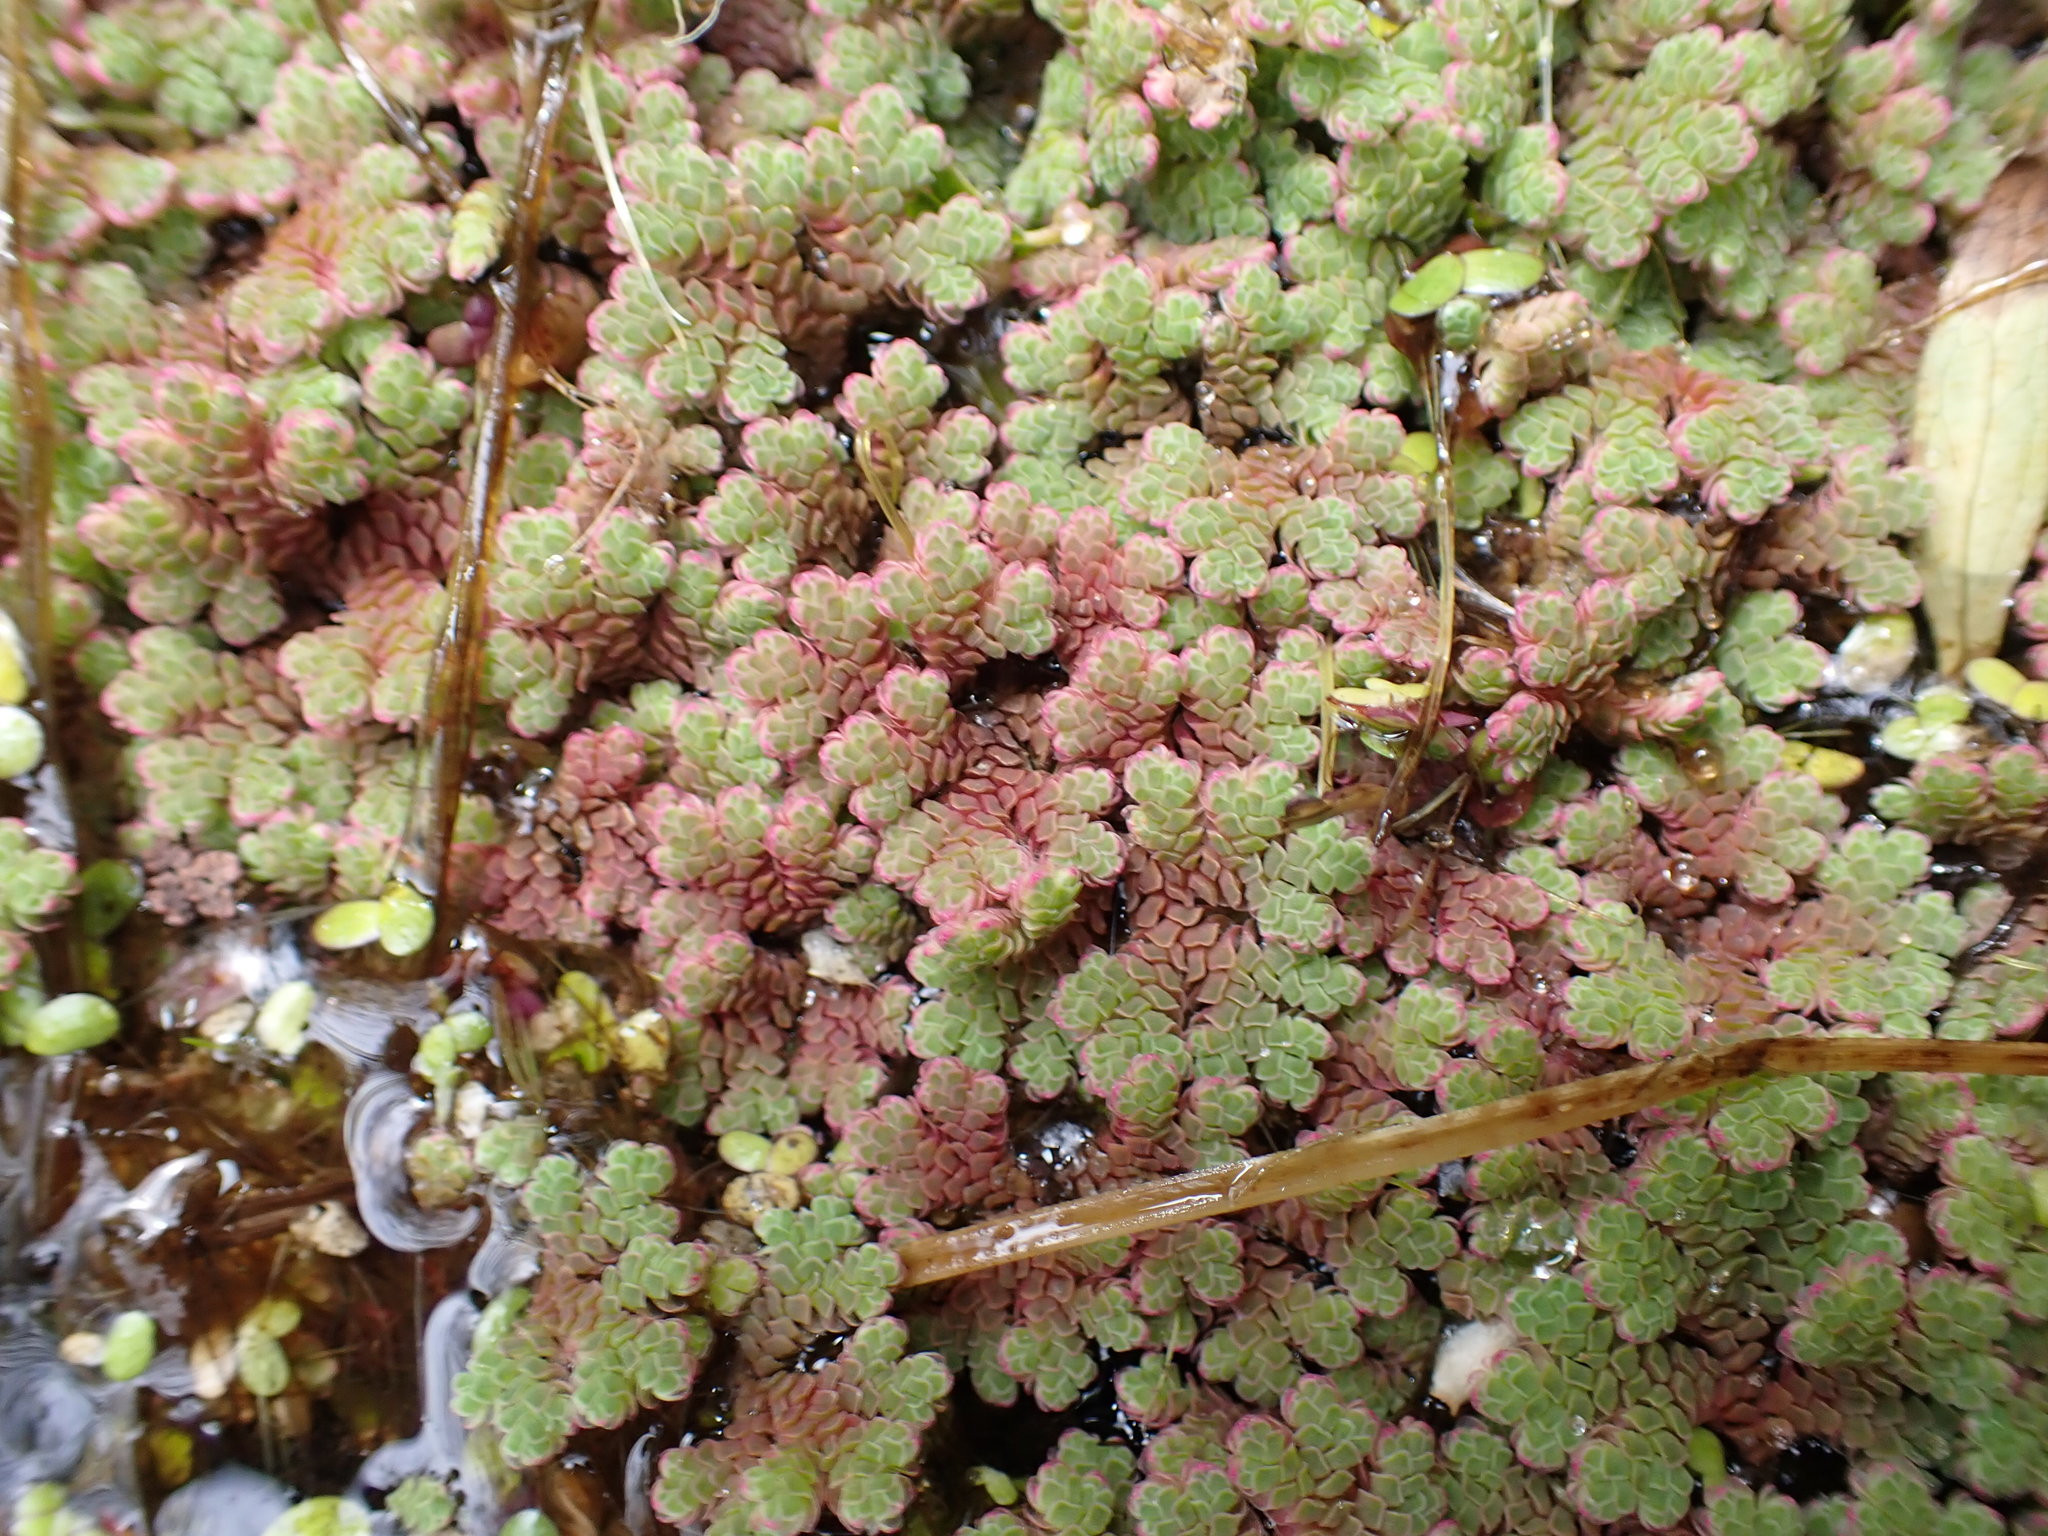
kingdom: Plantae
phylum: Tracheophyta
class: Polypodiopsida
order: Salviniales
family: Salviniaceae
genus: Azolla
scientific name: Azolla rubra
